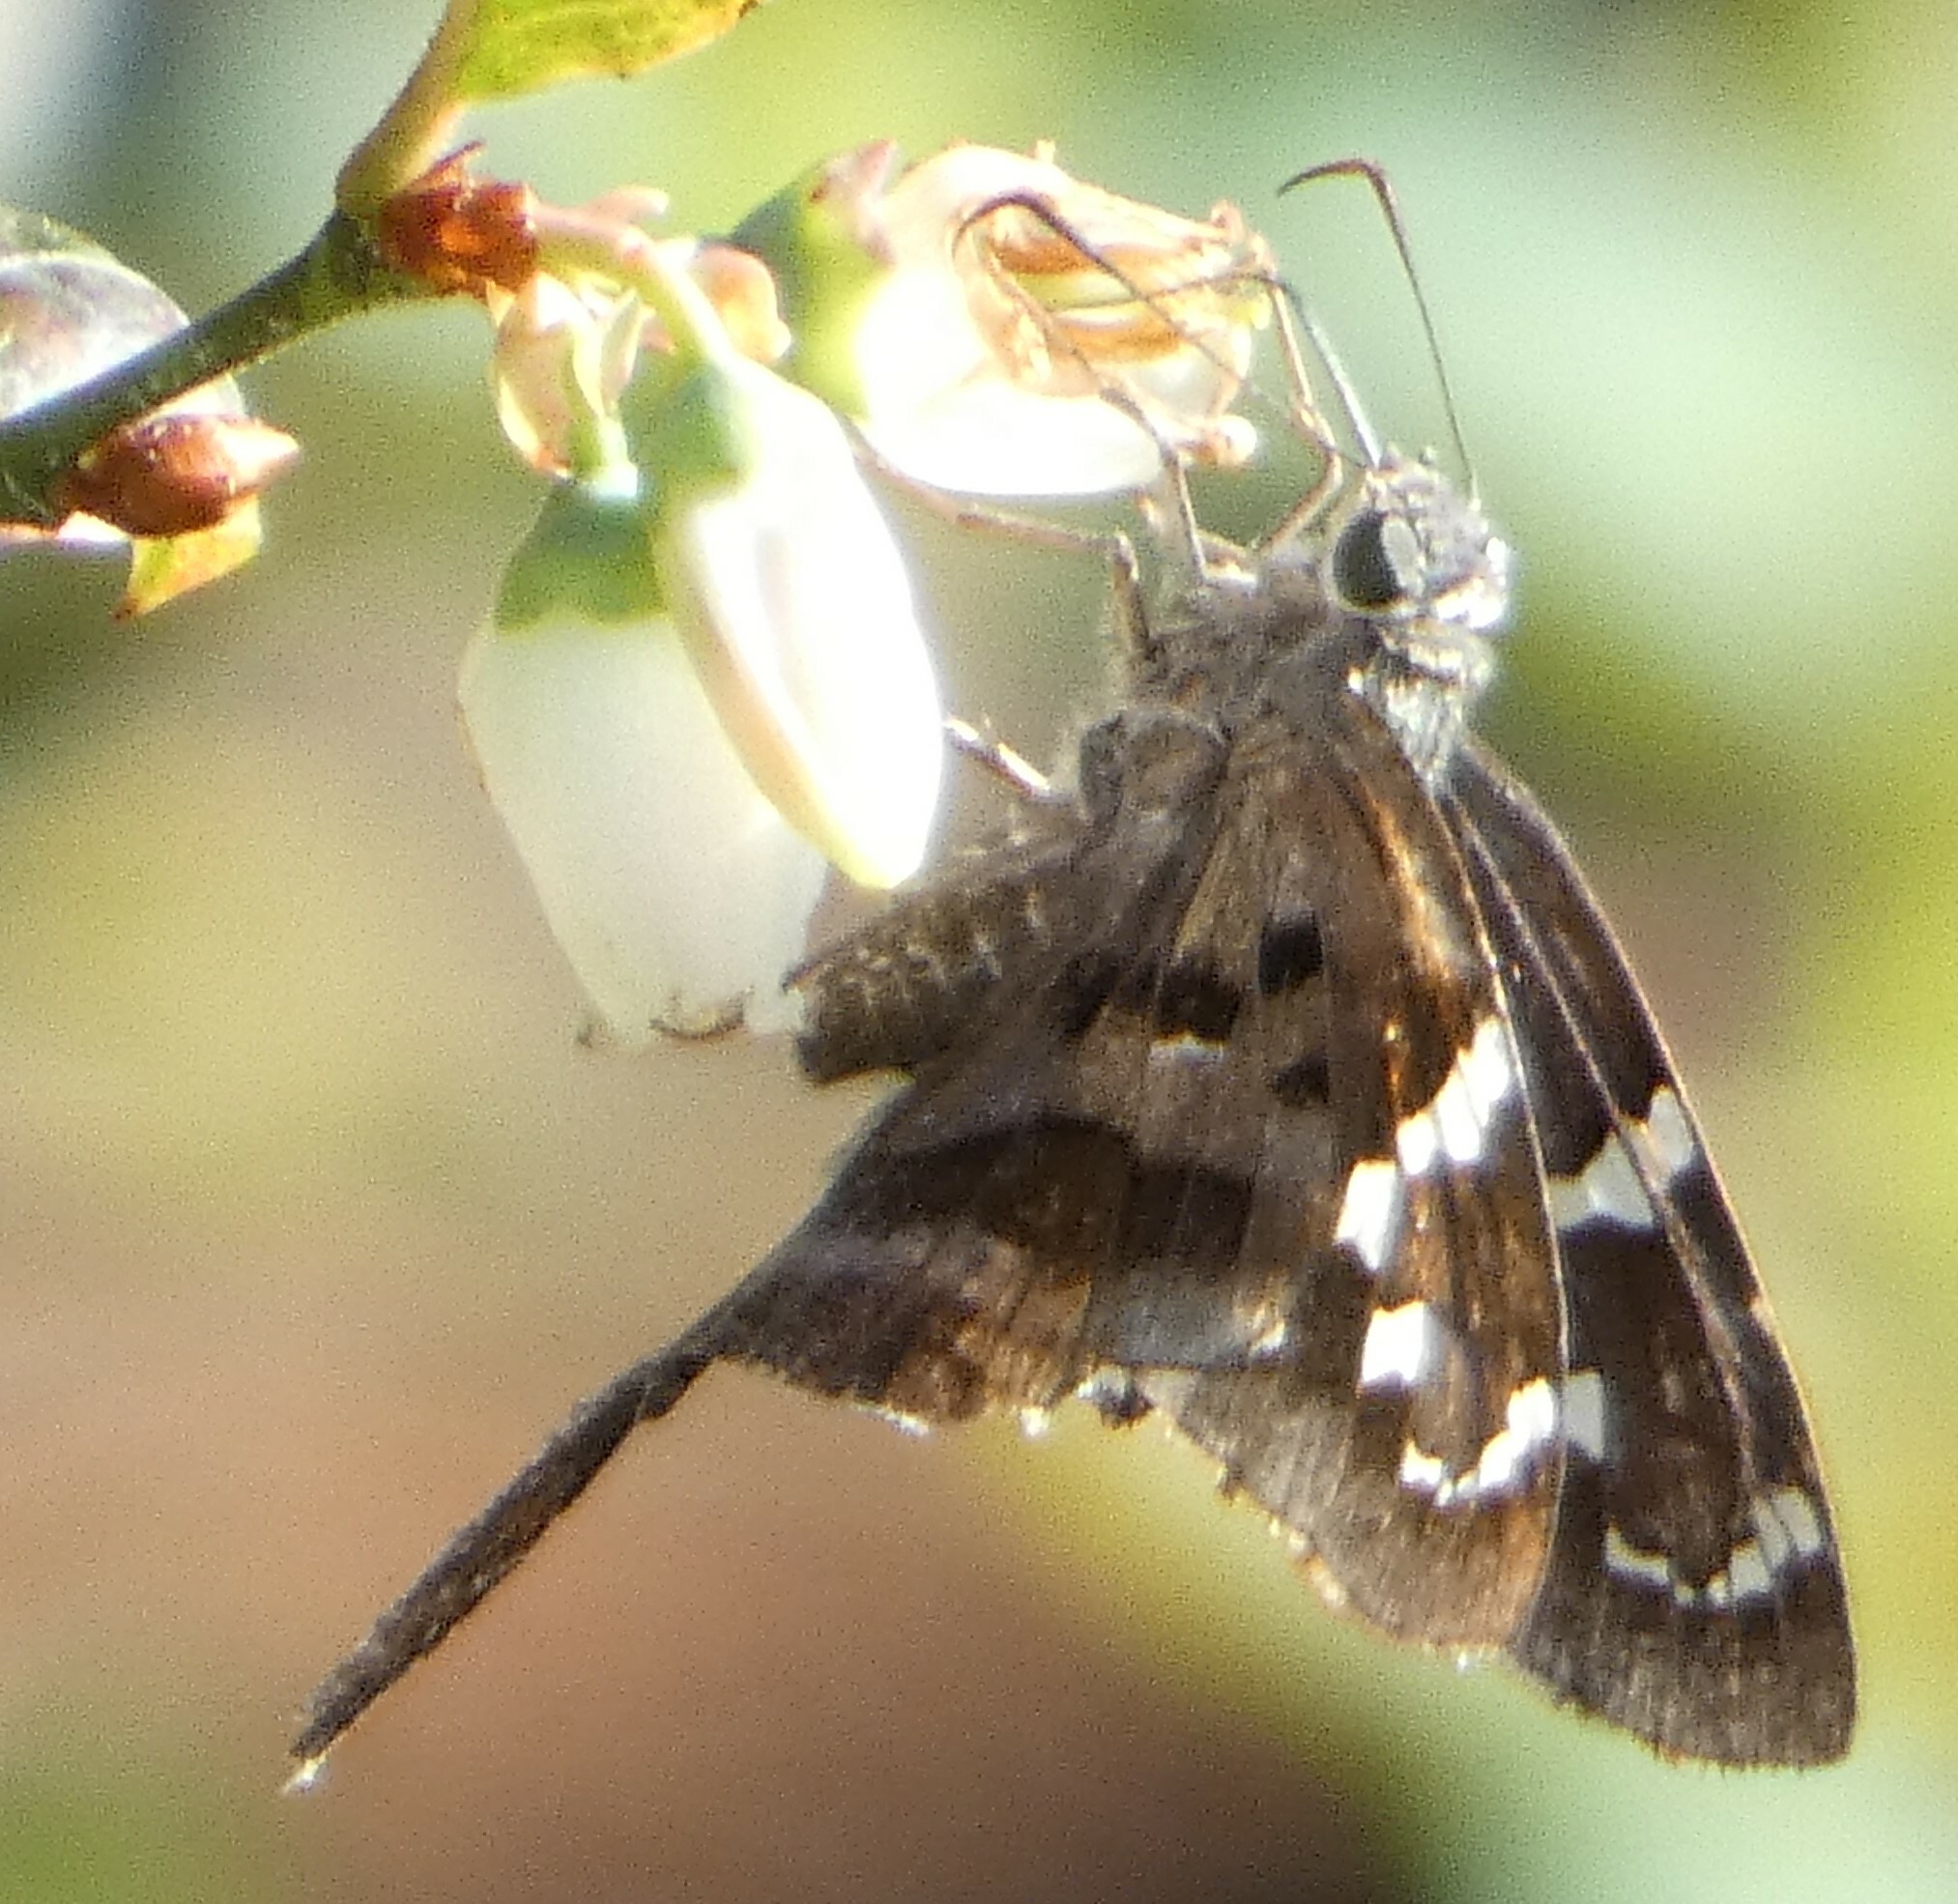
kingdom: Animalia
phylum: Arthropoda
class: Insecta
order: Lepidoptera
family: Hesperiidae
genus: Urbanus
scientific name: Urbanus proteus
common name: Long-tailed skipper
